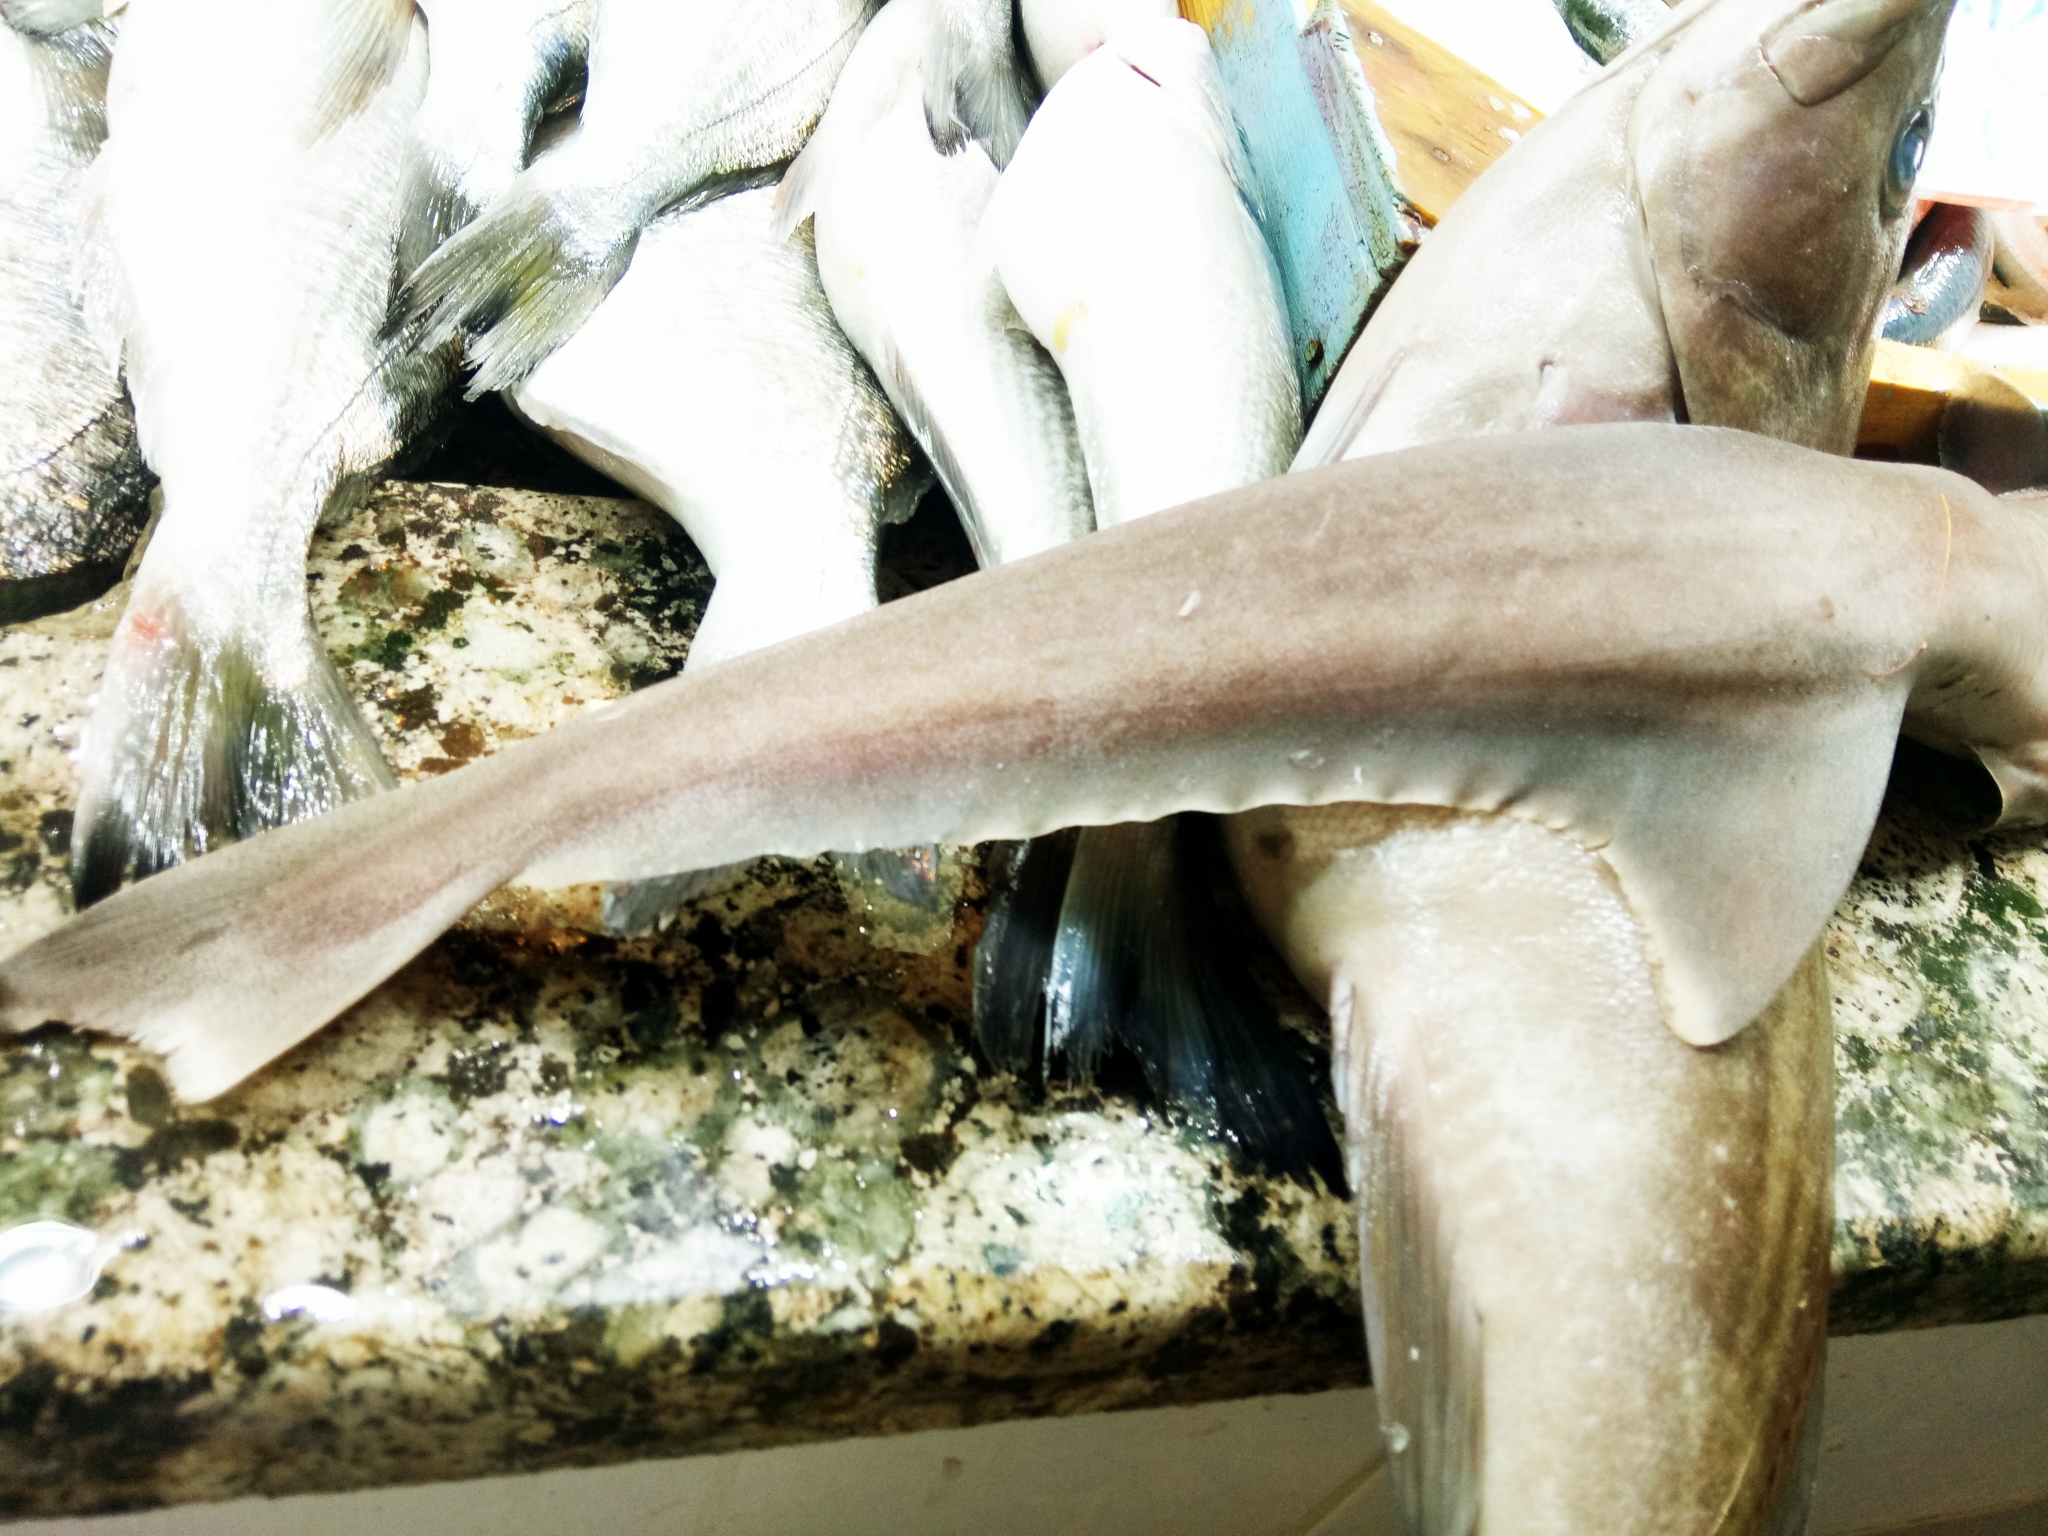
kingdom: Animalia
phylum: Chordata
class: Elasmobranchii
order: Hexanchiformes
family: Hexanchidae
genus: Heptranchias
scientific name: Heptranchias perlo
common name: Sharpnose sevengill shark
